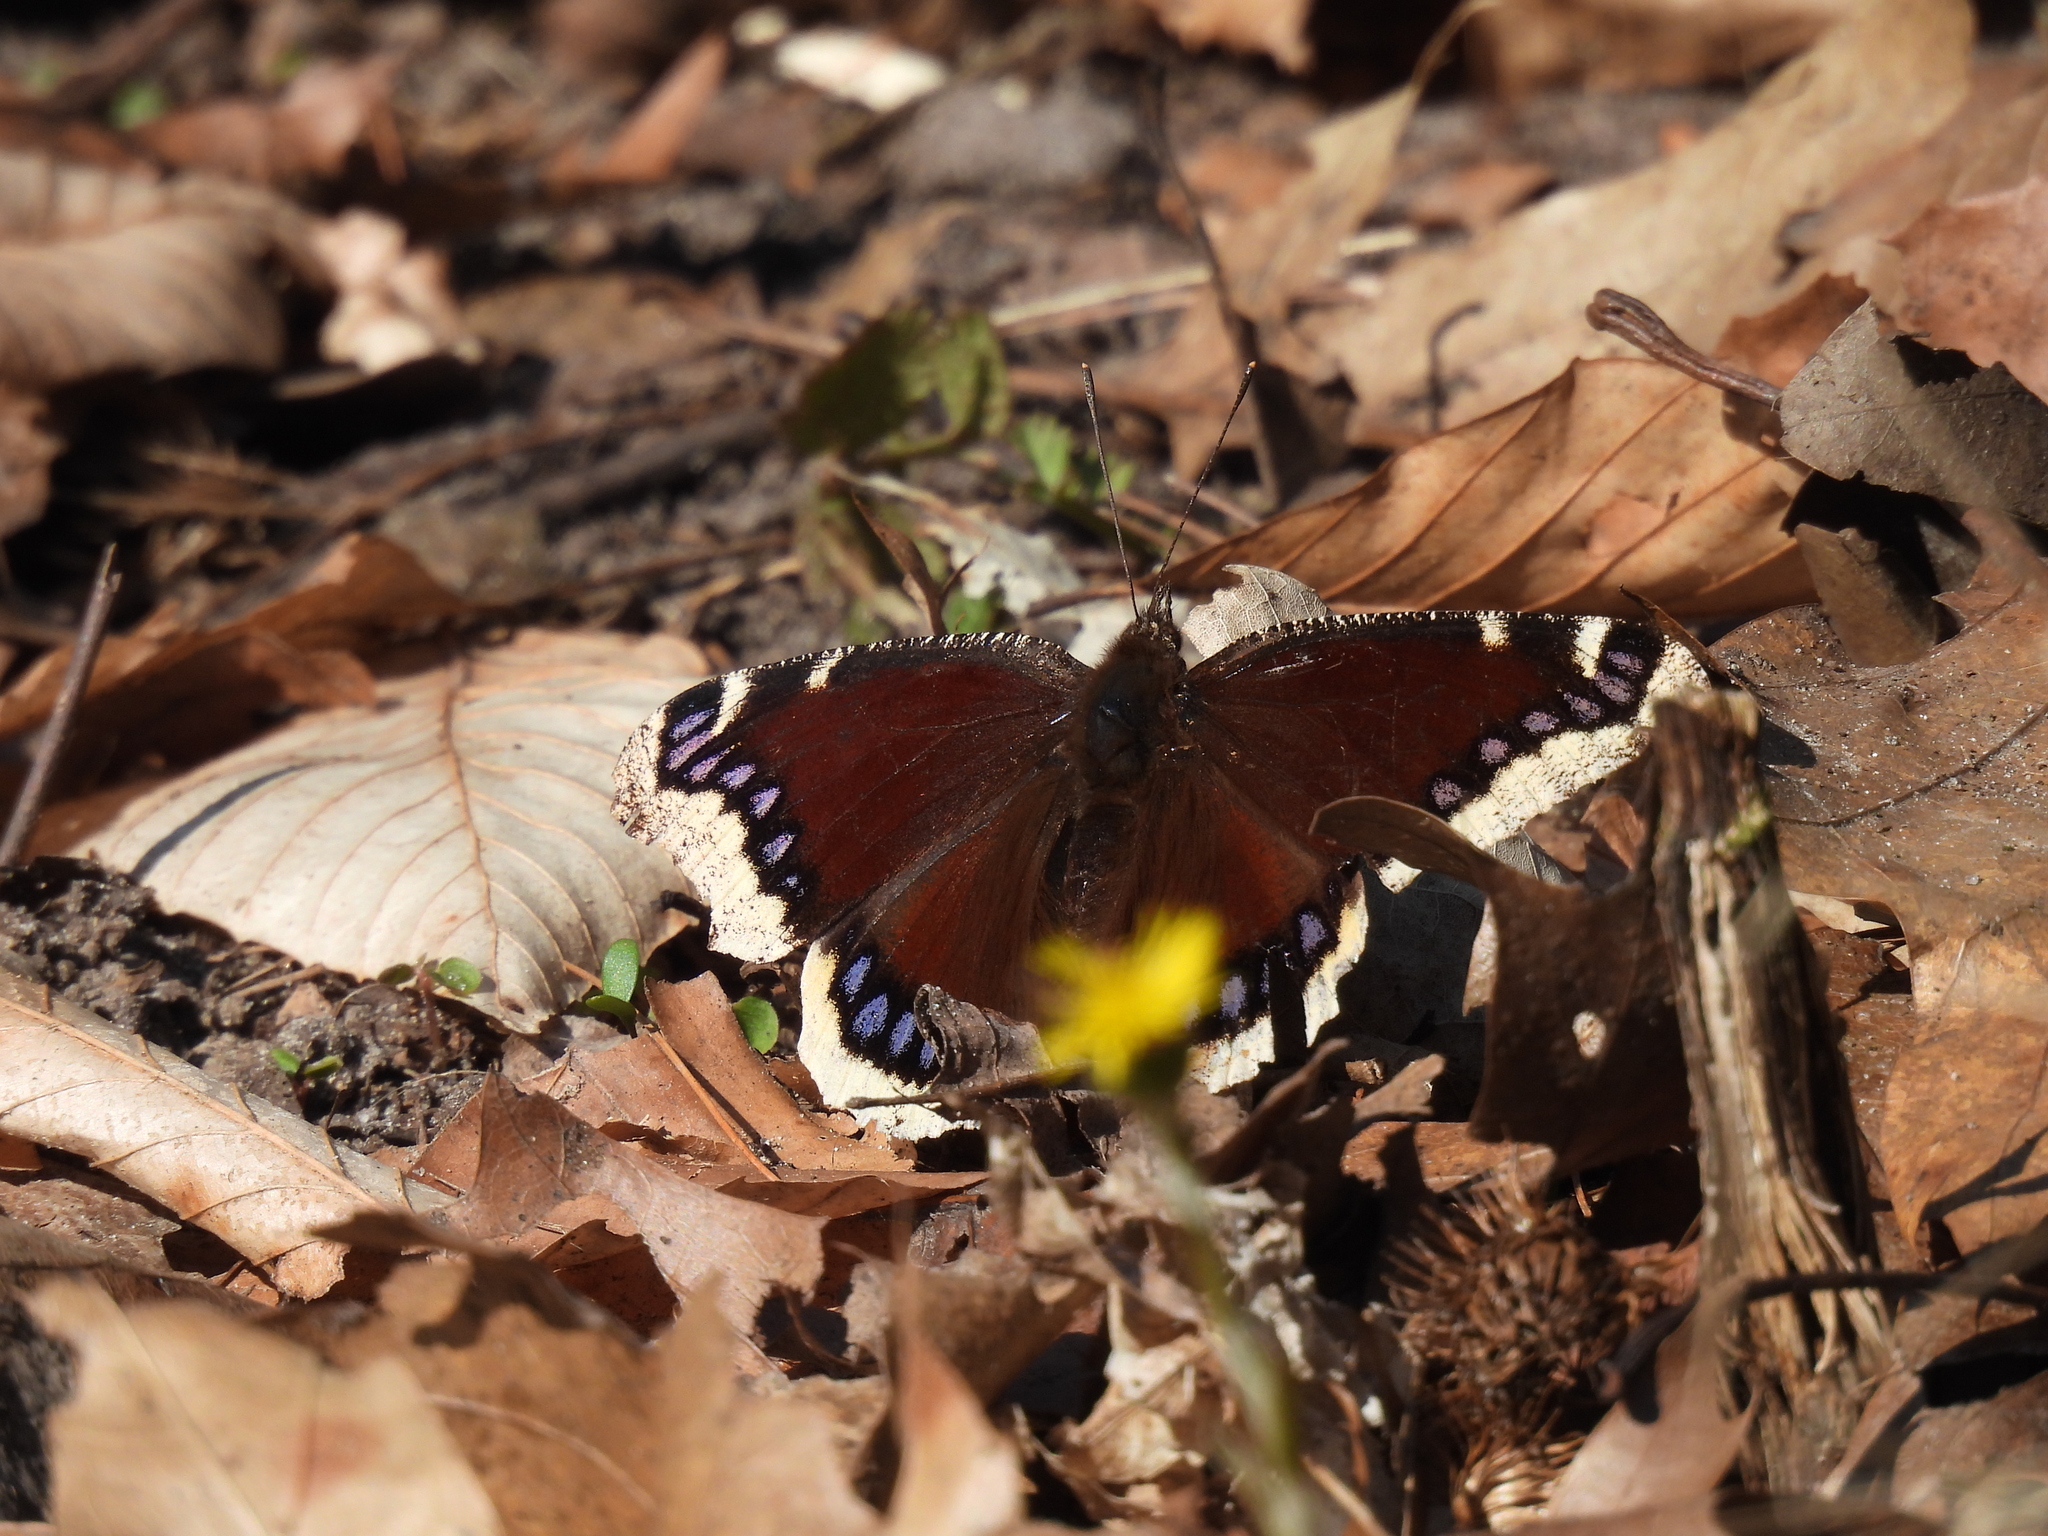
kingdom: Animalia
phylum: Arthropoda
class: Insecta
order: Lepidoptera
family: Nymphalidae
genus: Nymphalis
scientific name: Nymphalis antiopa
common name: Camberwell beauty
